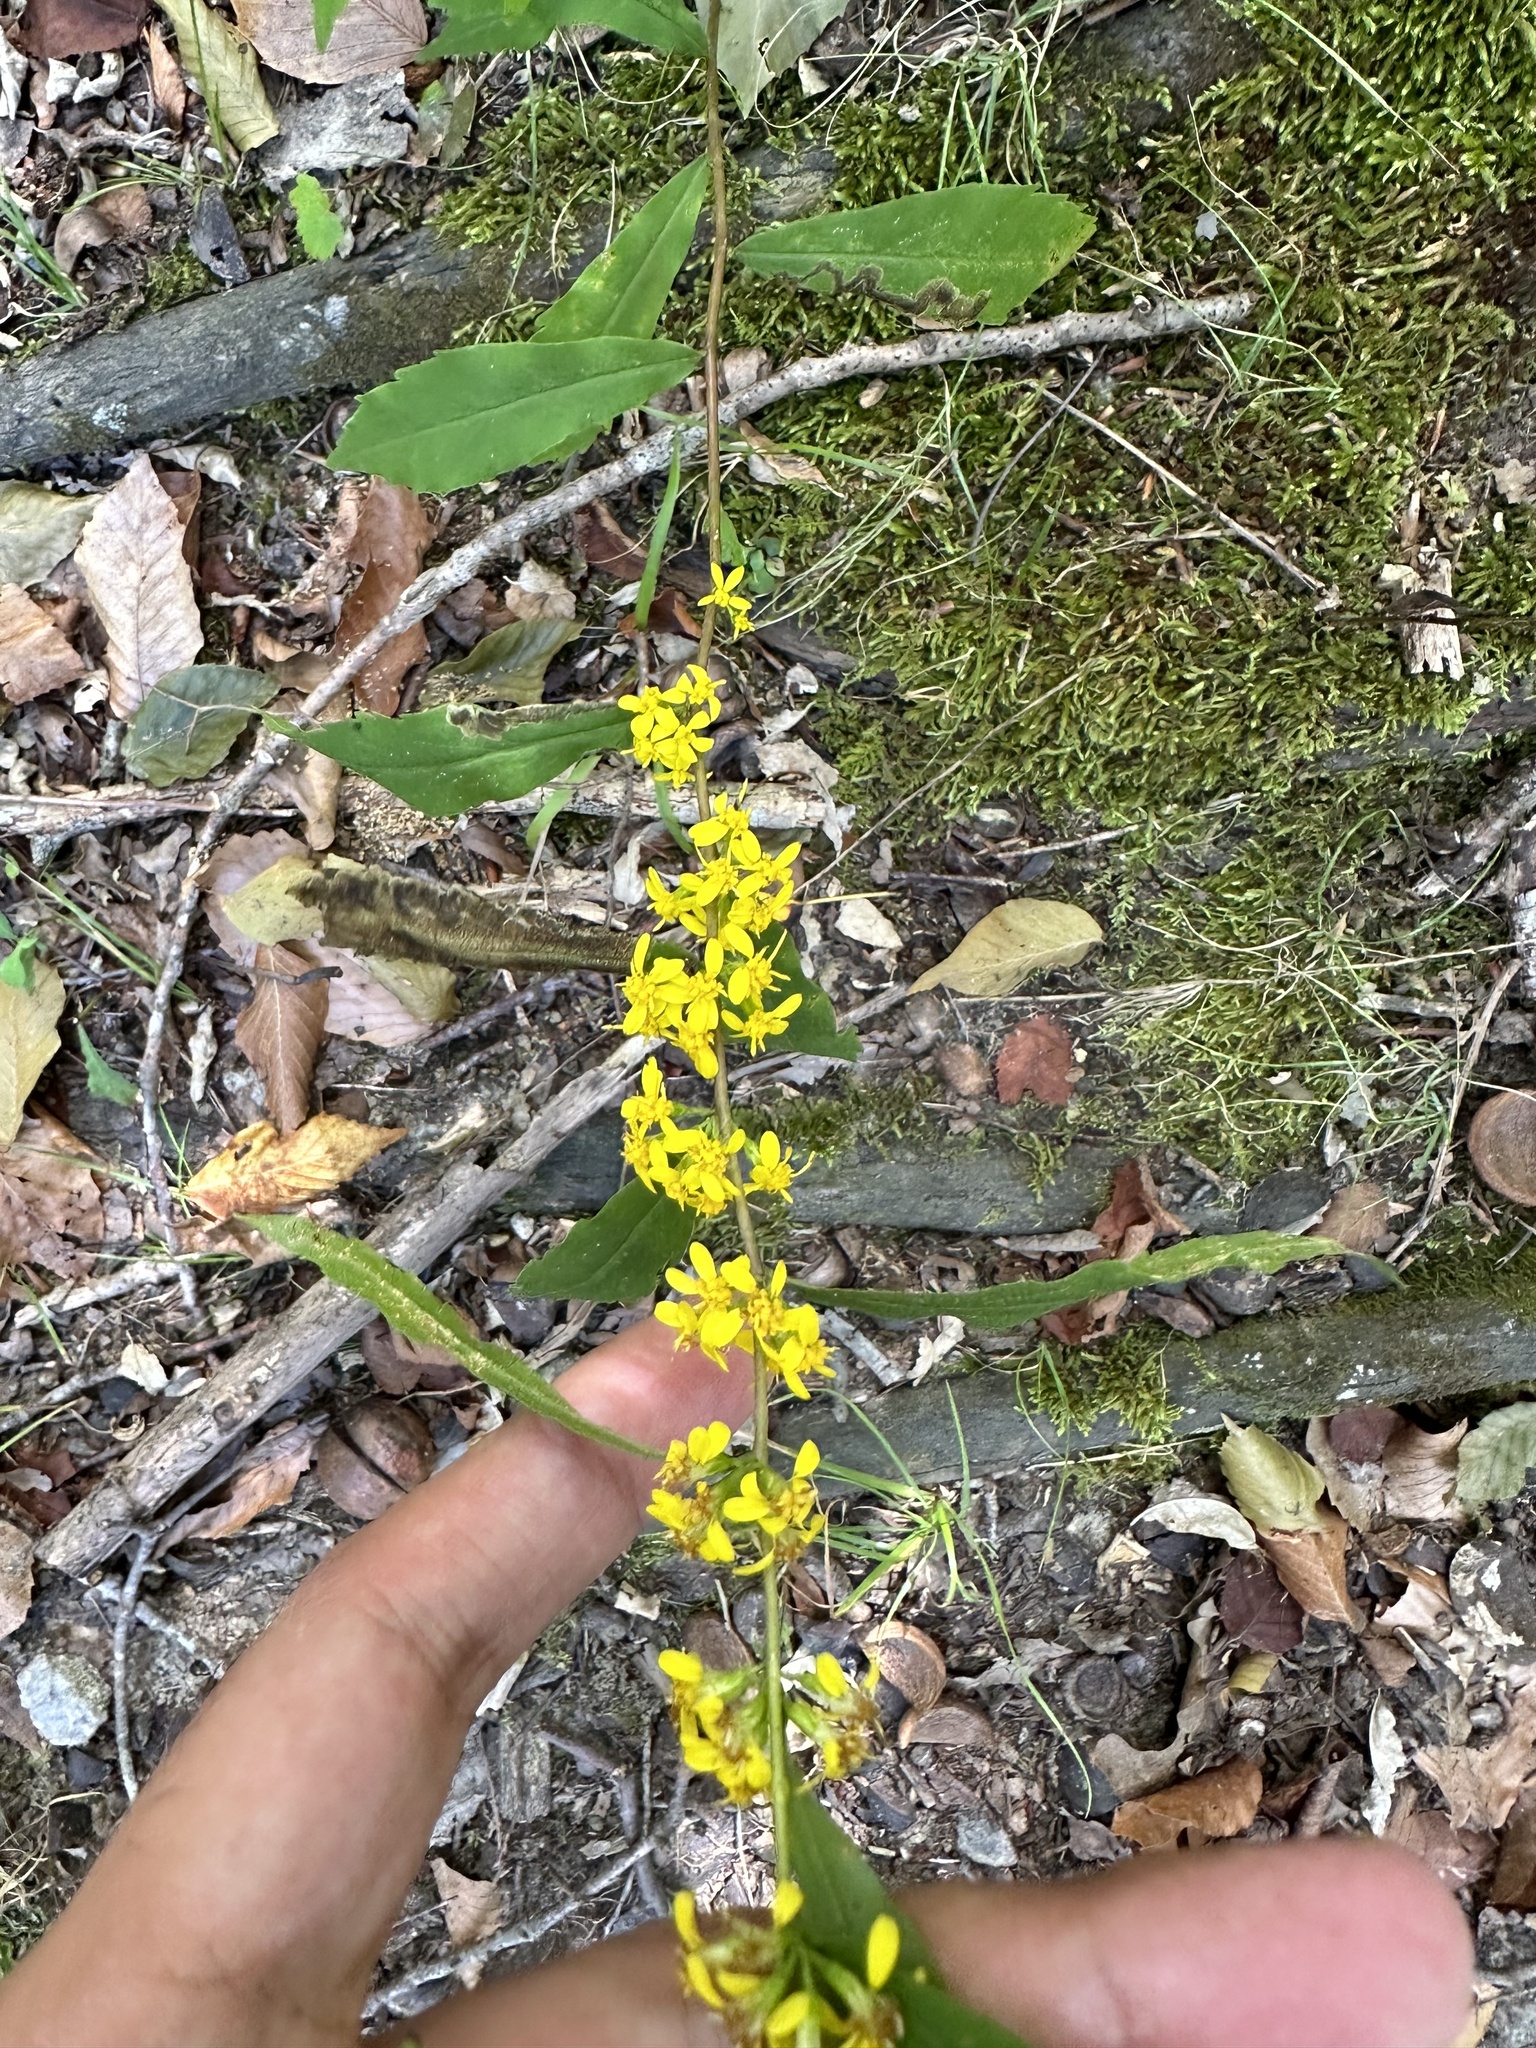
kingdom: Plantae
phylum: Tracheophyta
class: Magnoliopsida
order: Asterales
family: Asteraceae
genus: Solidago
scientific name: Solidago caesia
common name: Woodland goldenrod
